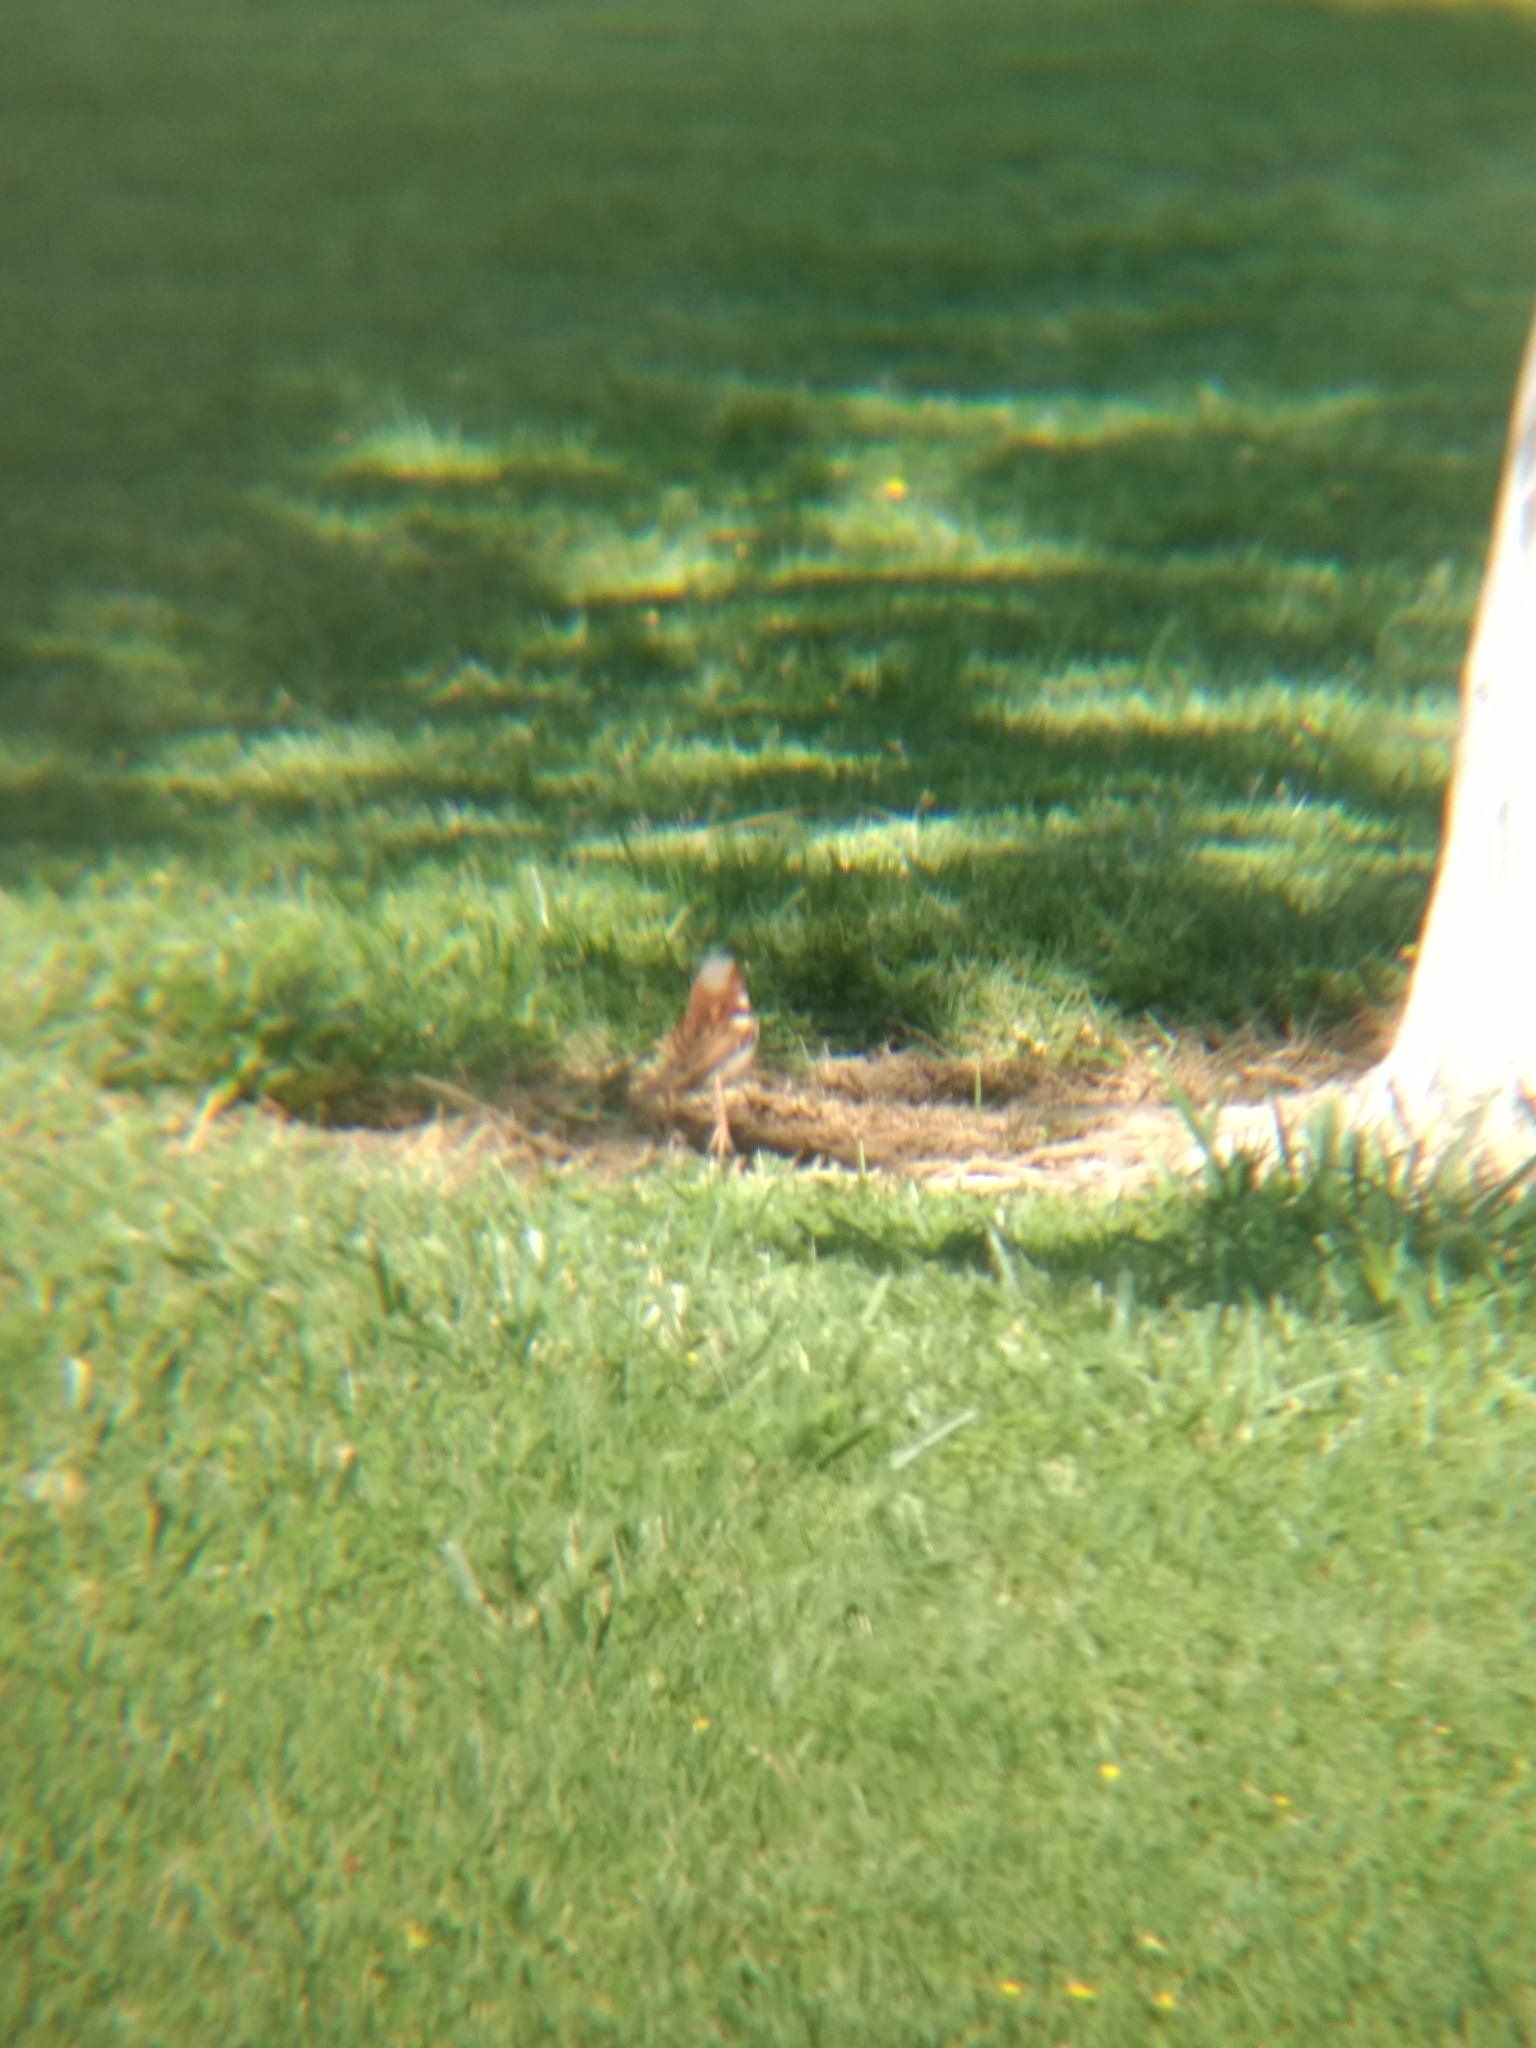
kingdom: Animalia
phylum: Chordata
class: Aves
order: Passeriformes
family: Passeridae
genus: Passer
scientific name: Passer domesticus
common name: House sparrow
